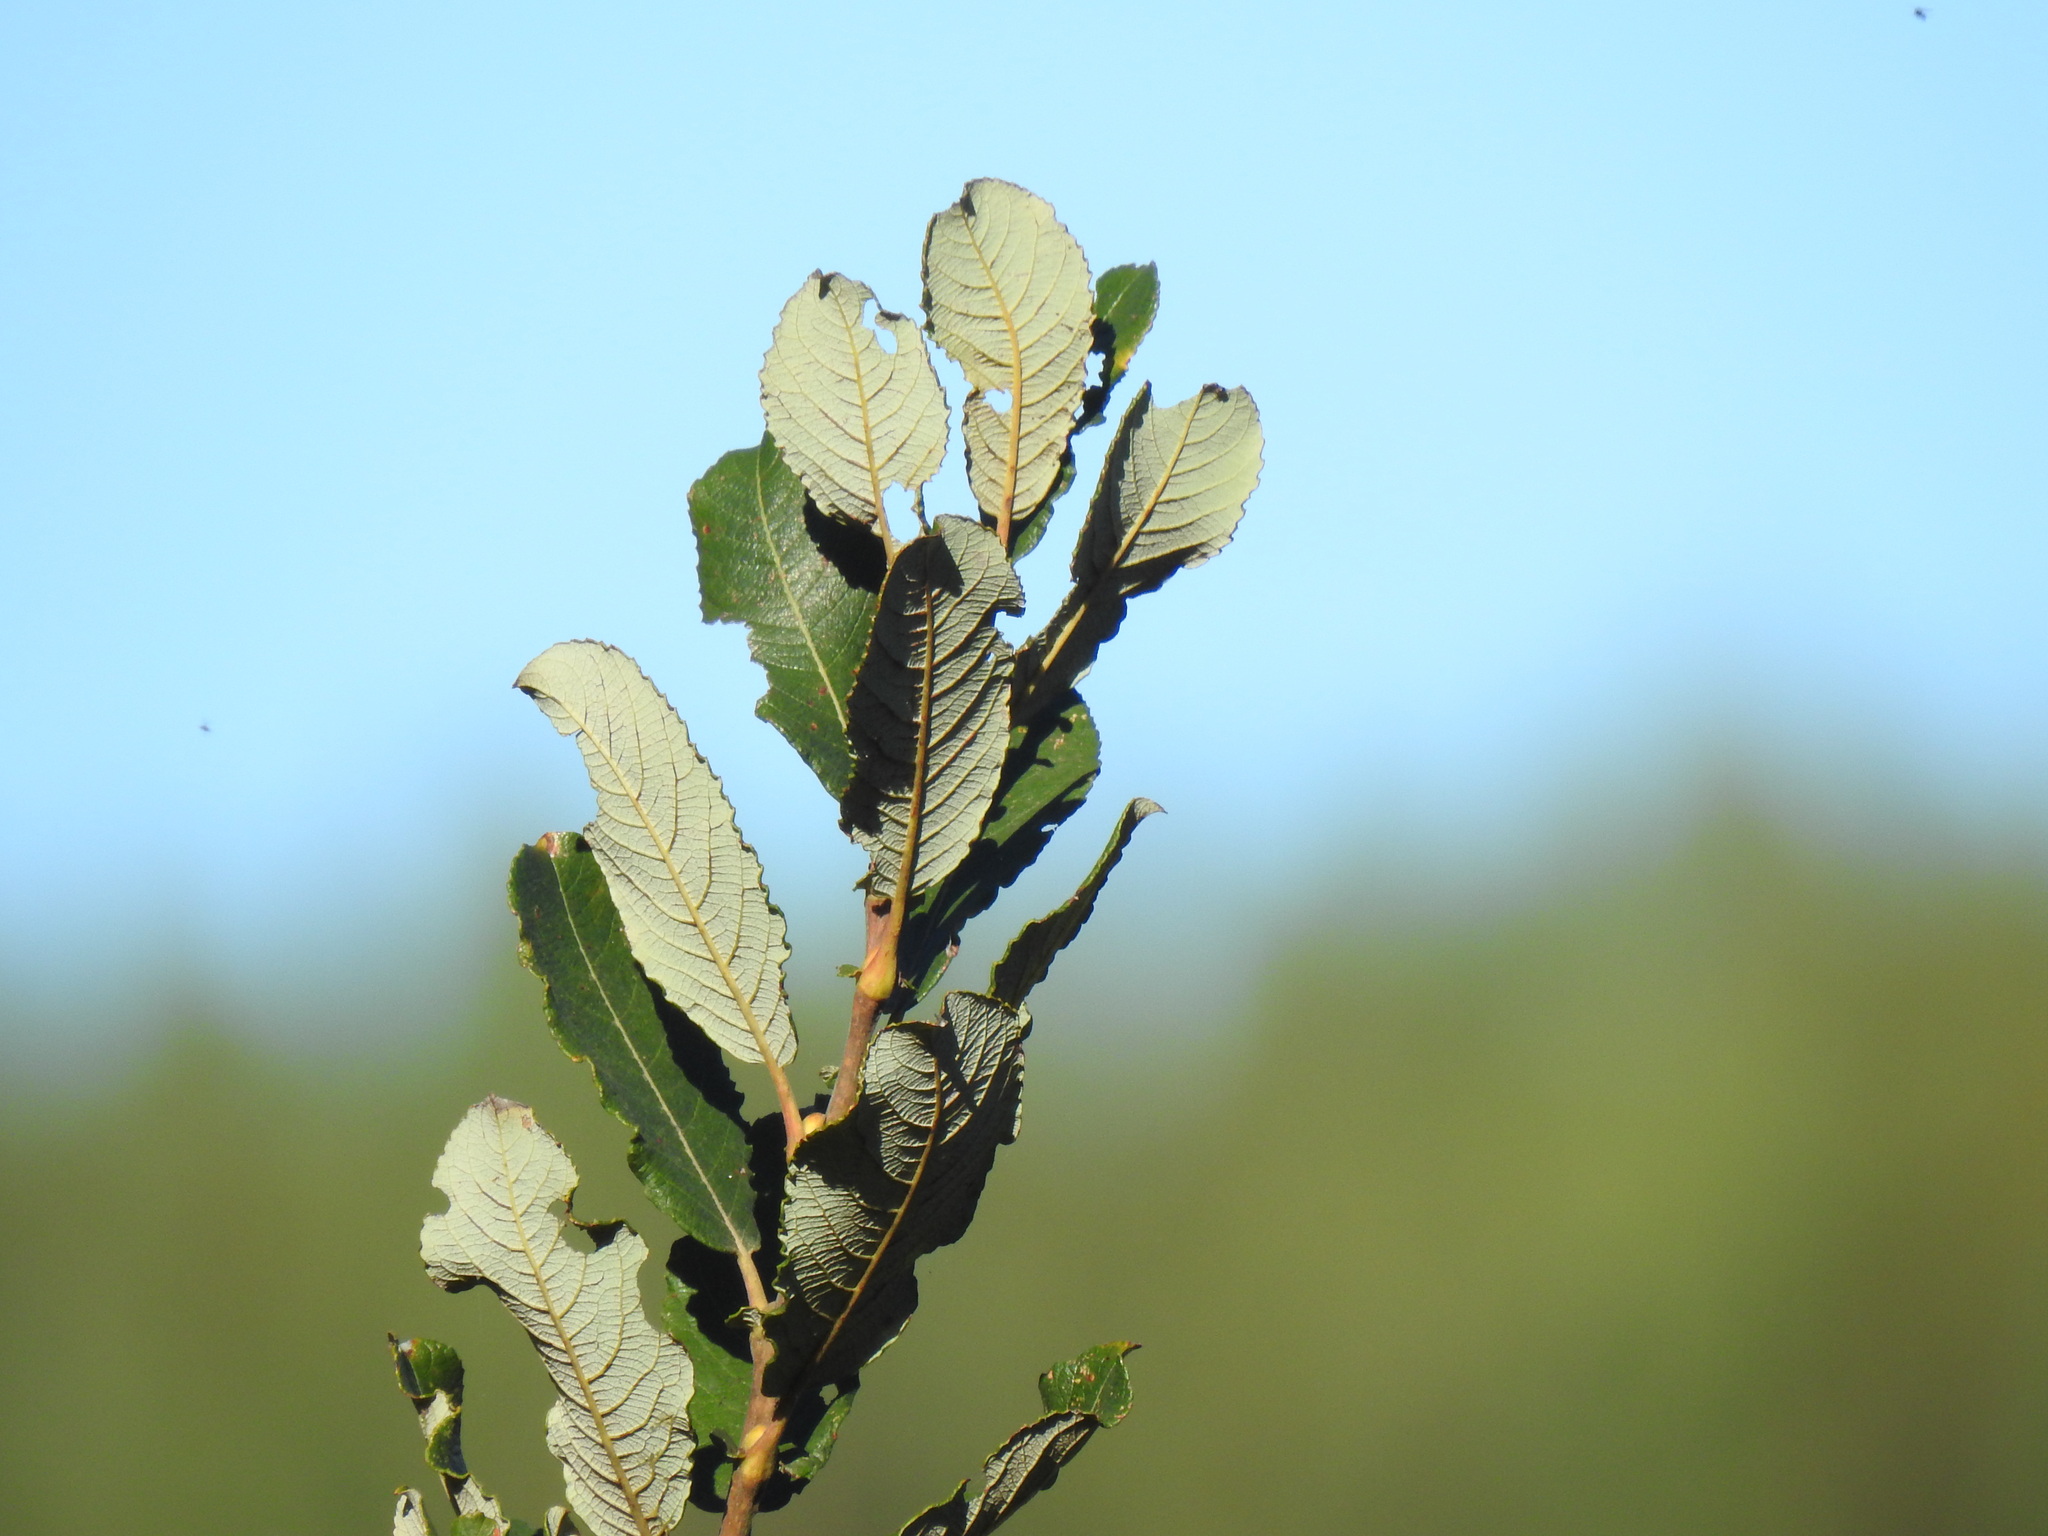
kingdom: Plantae
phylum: Tracheophyta
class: Magnoliopsida
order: Malpighiales
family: Salicaceae
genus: Salix
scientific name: Salix atrocinerea
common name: Rusty willow
